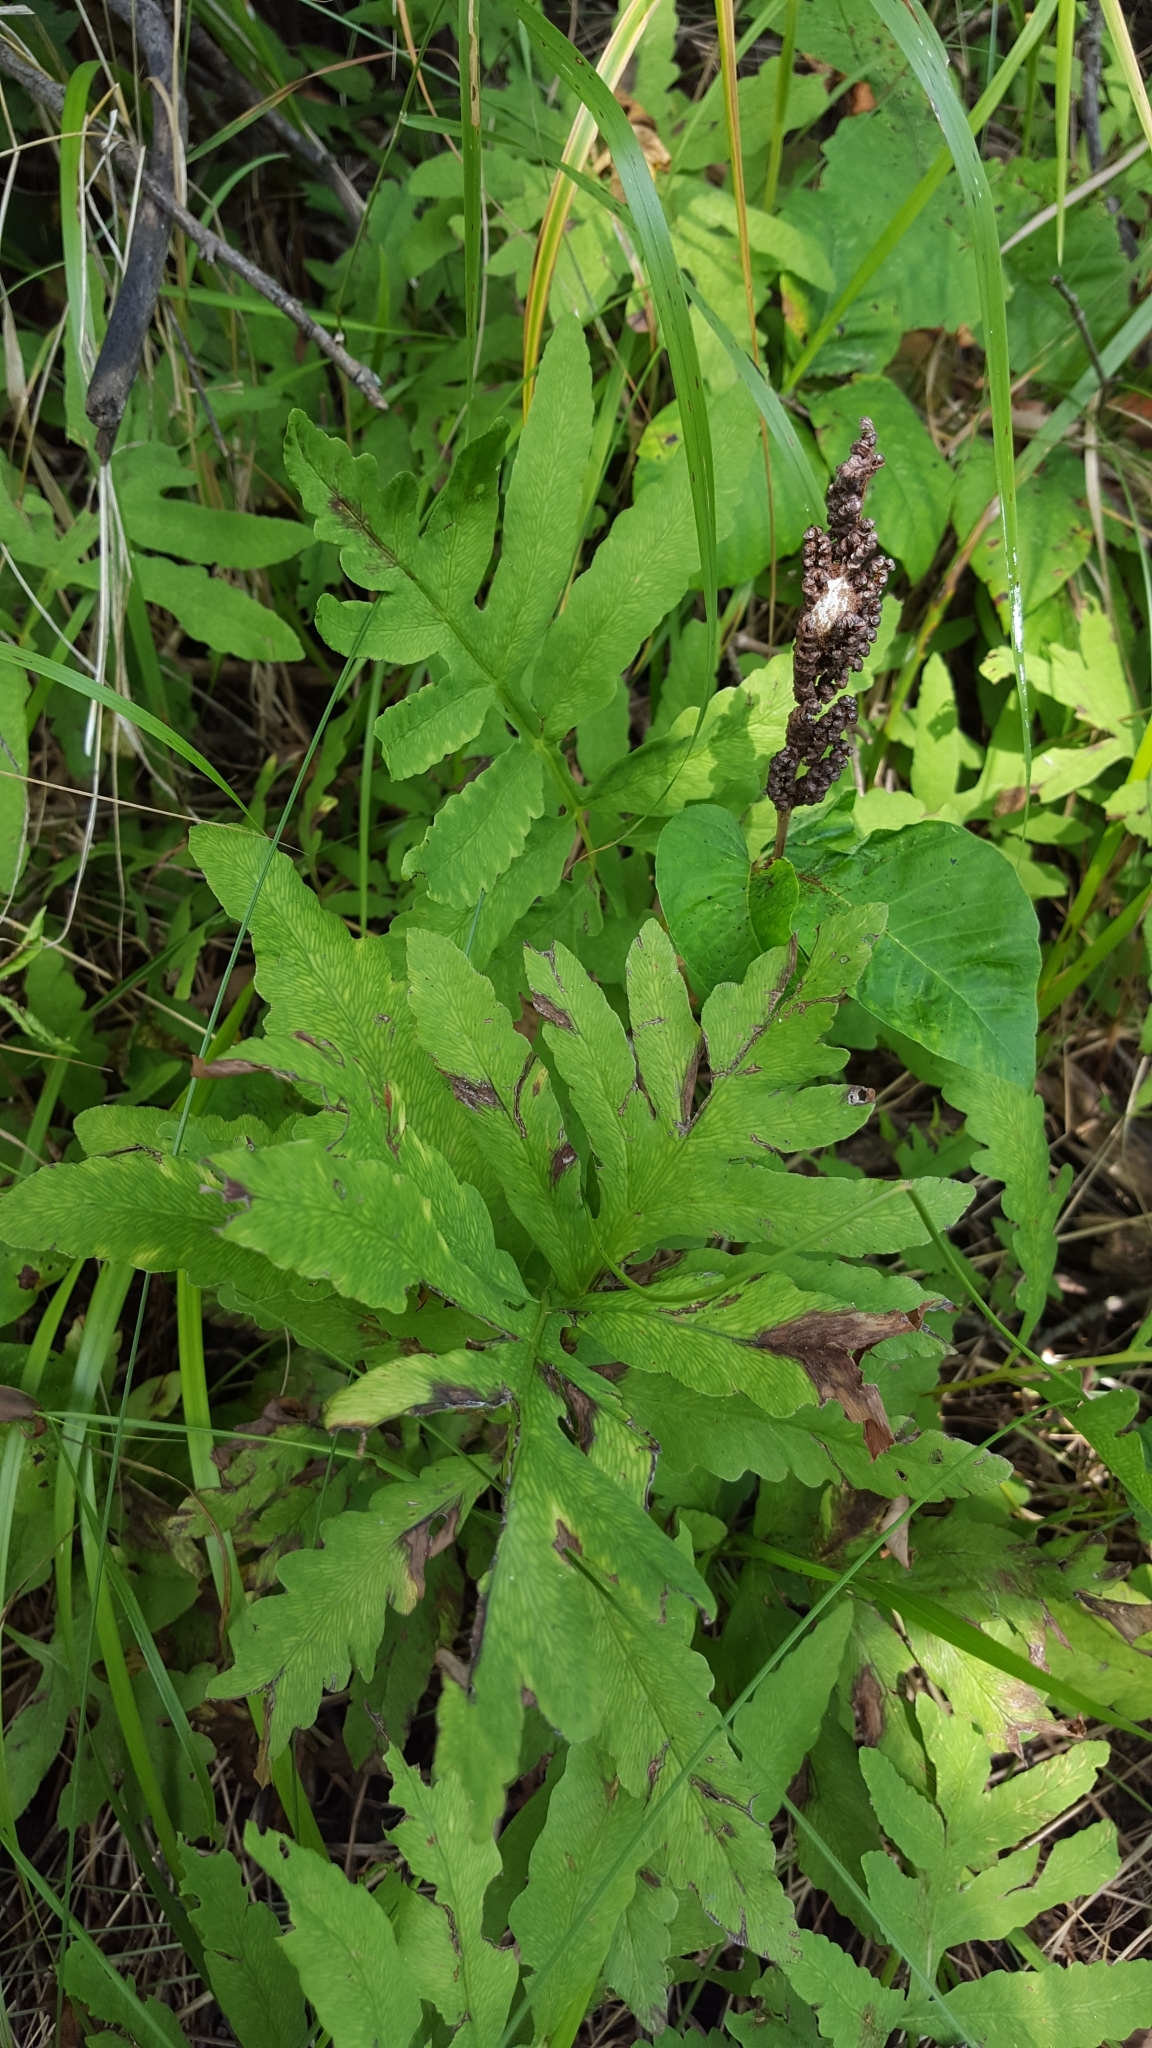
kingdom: Plantae
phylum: Tracheophyta
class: Polypodiopsida
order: Polypodiales
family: Onocleaceae
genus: Onoclea
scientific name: Onoclea sensibilis
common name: Sensitive fern
